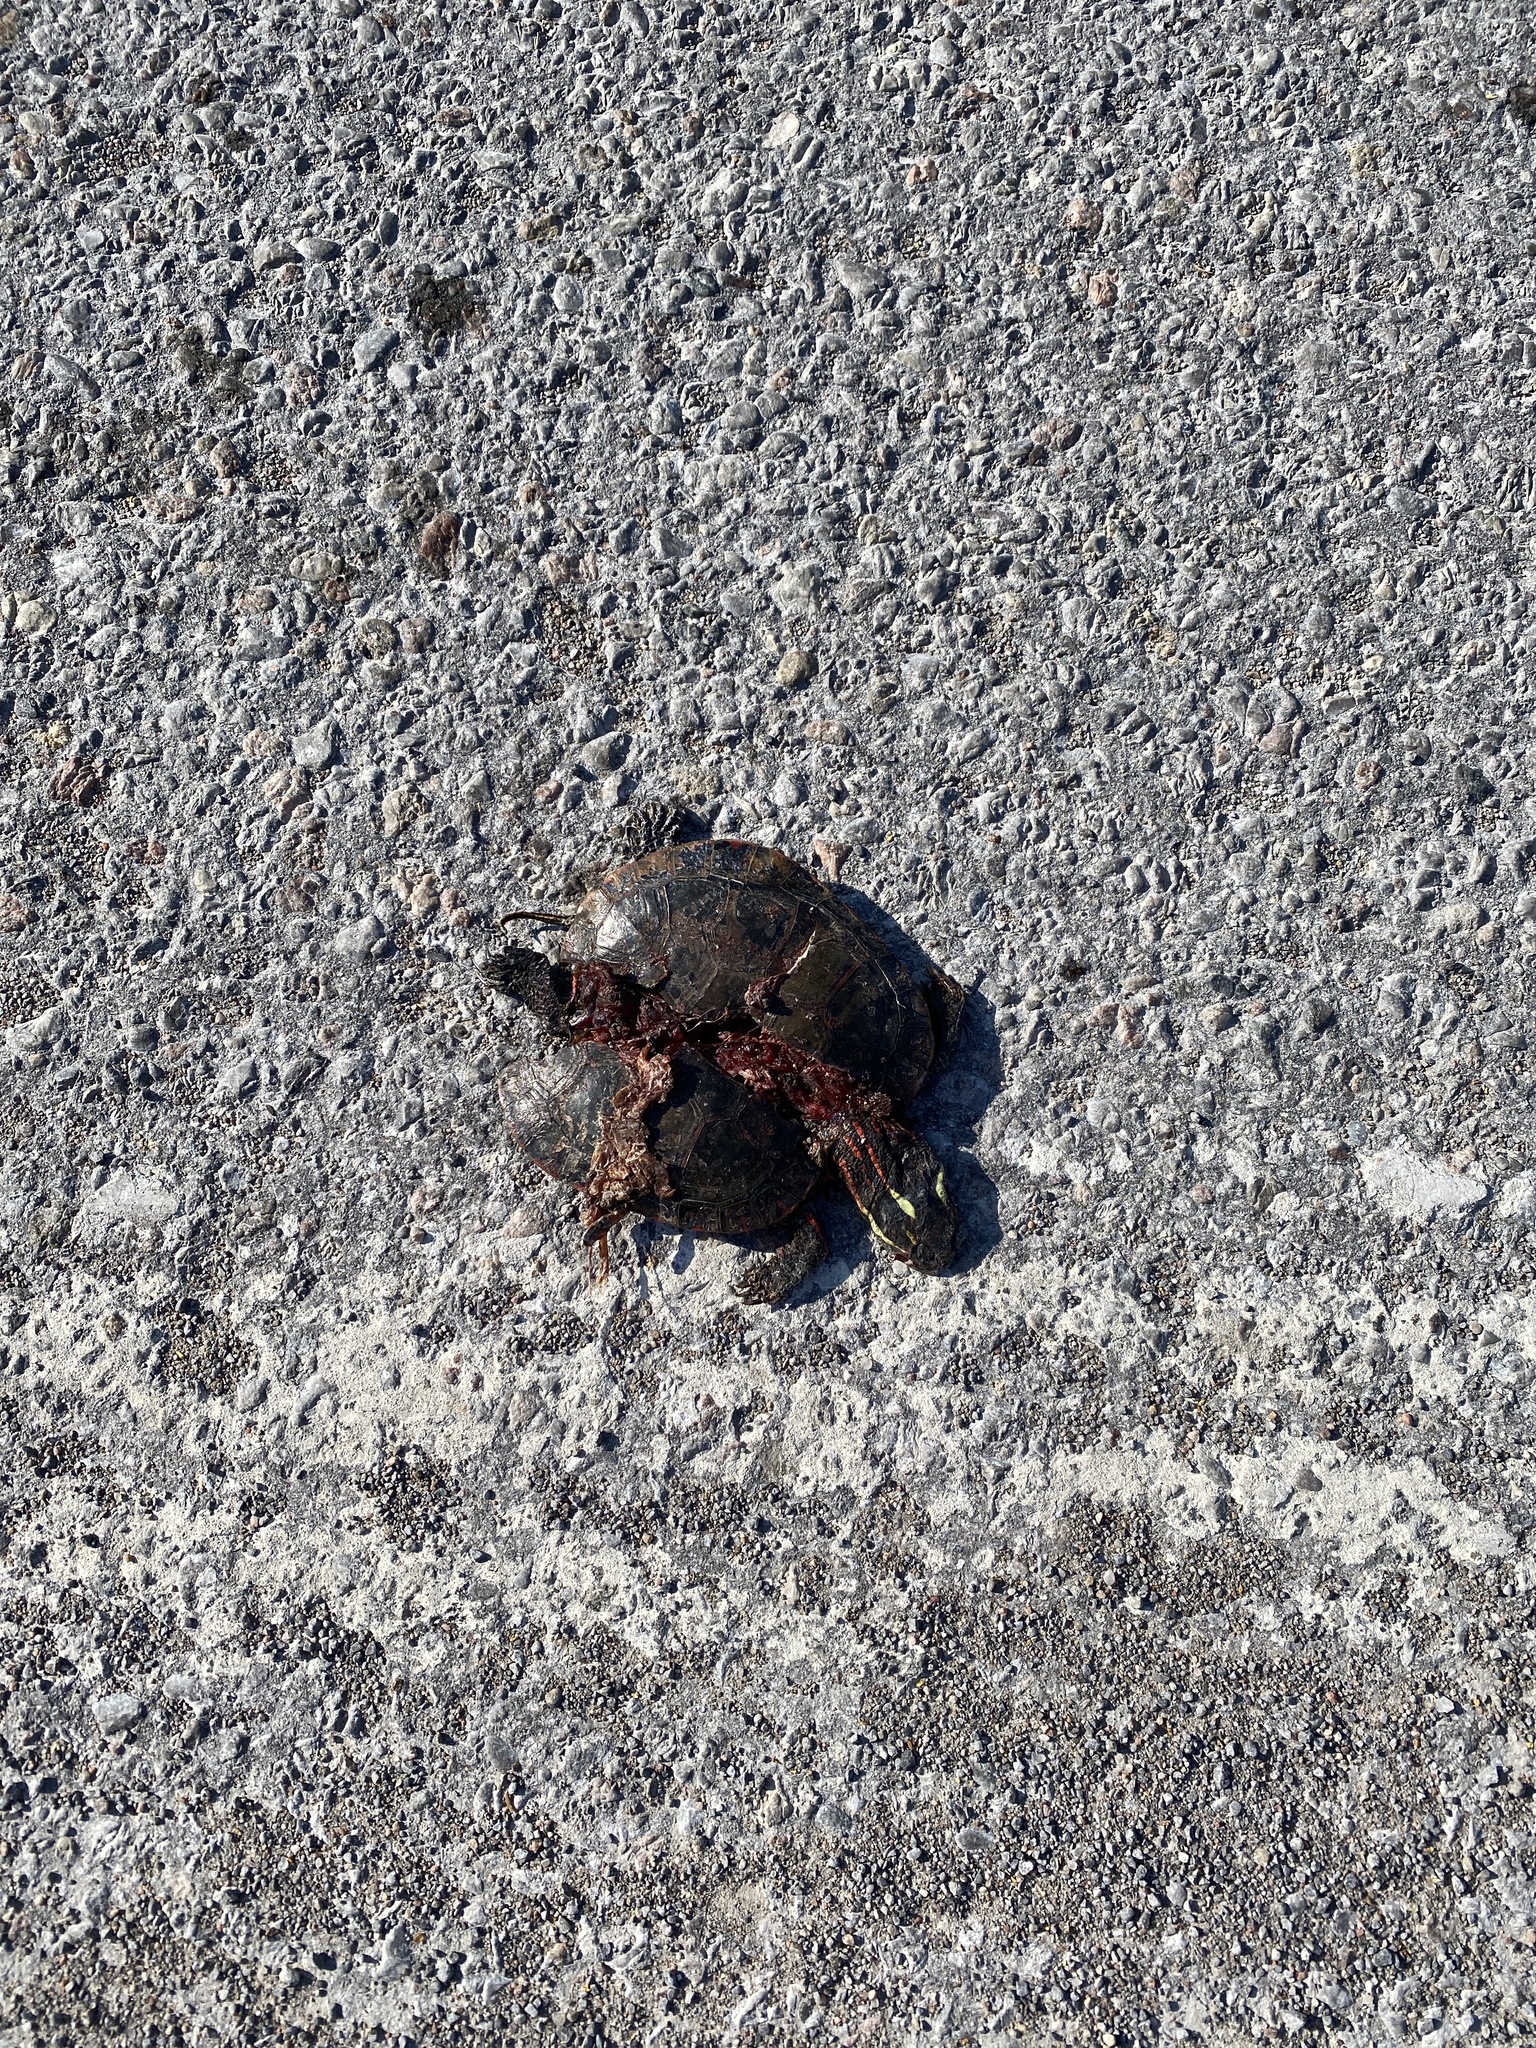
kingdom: Animalia
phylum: Chordata
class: Testudines
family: Emydidae
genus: Chrysemys
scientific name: Chrysemys picta
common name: Painted turtle
